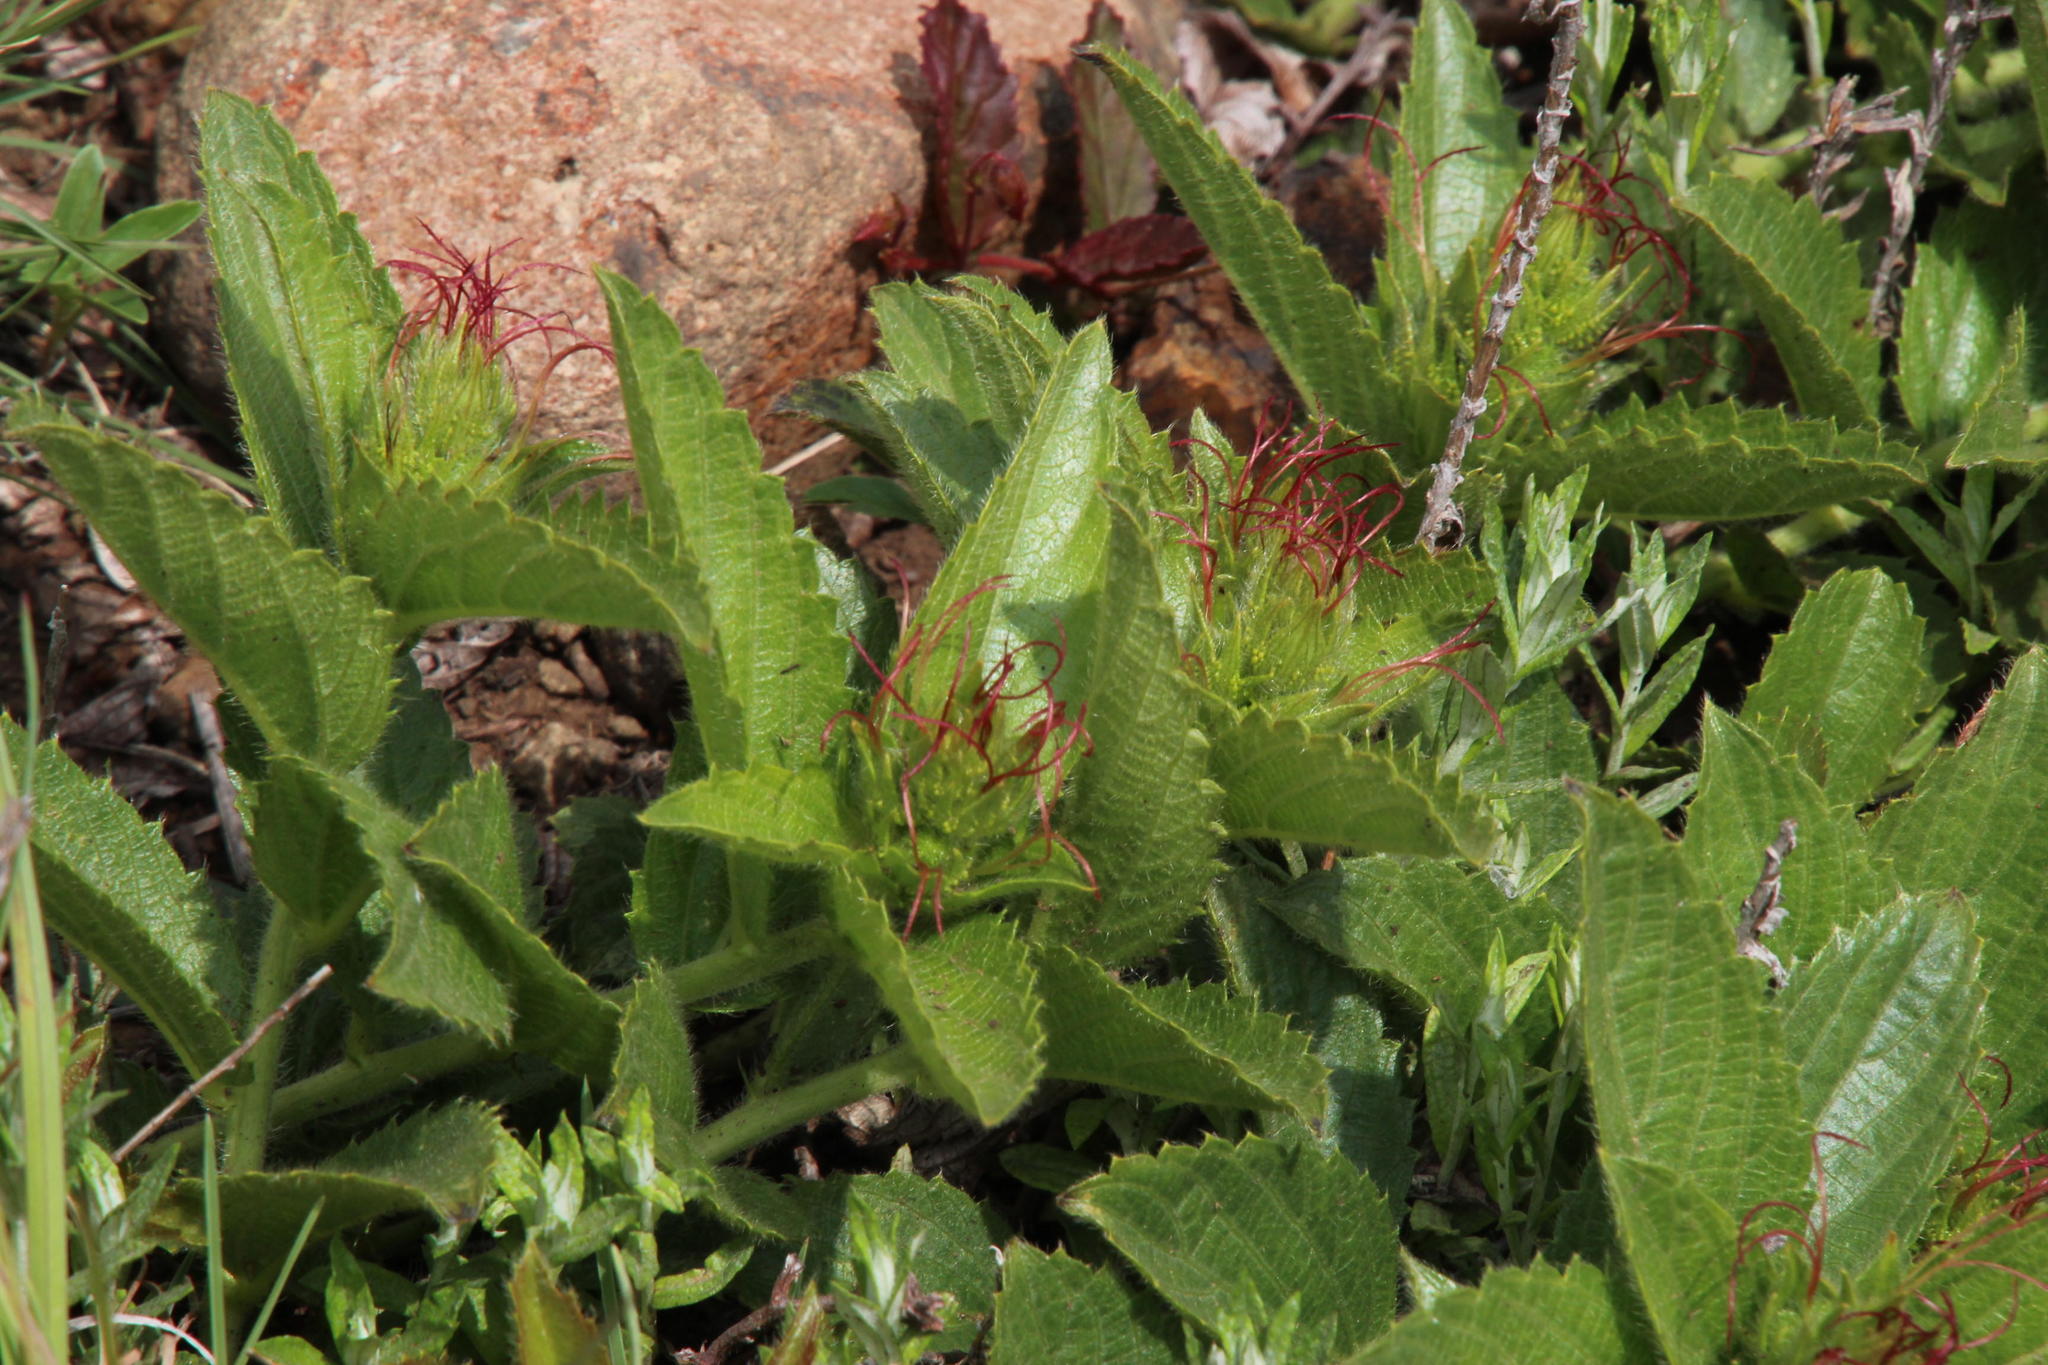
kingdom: Plantae
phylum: Tracheophyta
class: Magnoliopsida
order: Malpighiales
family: Euphorbiaceae
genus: Acalypha
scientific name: Acalypha angustata
